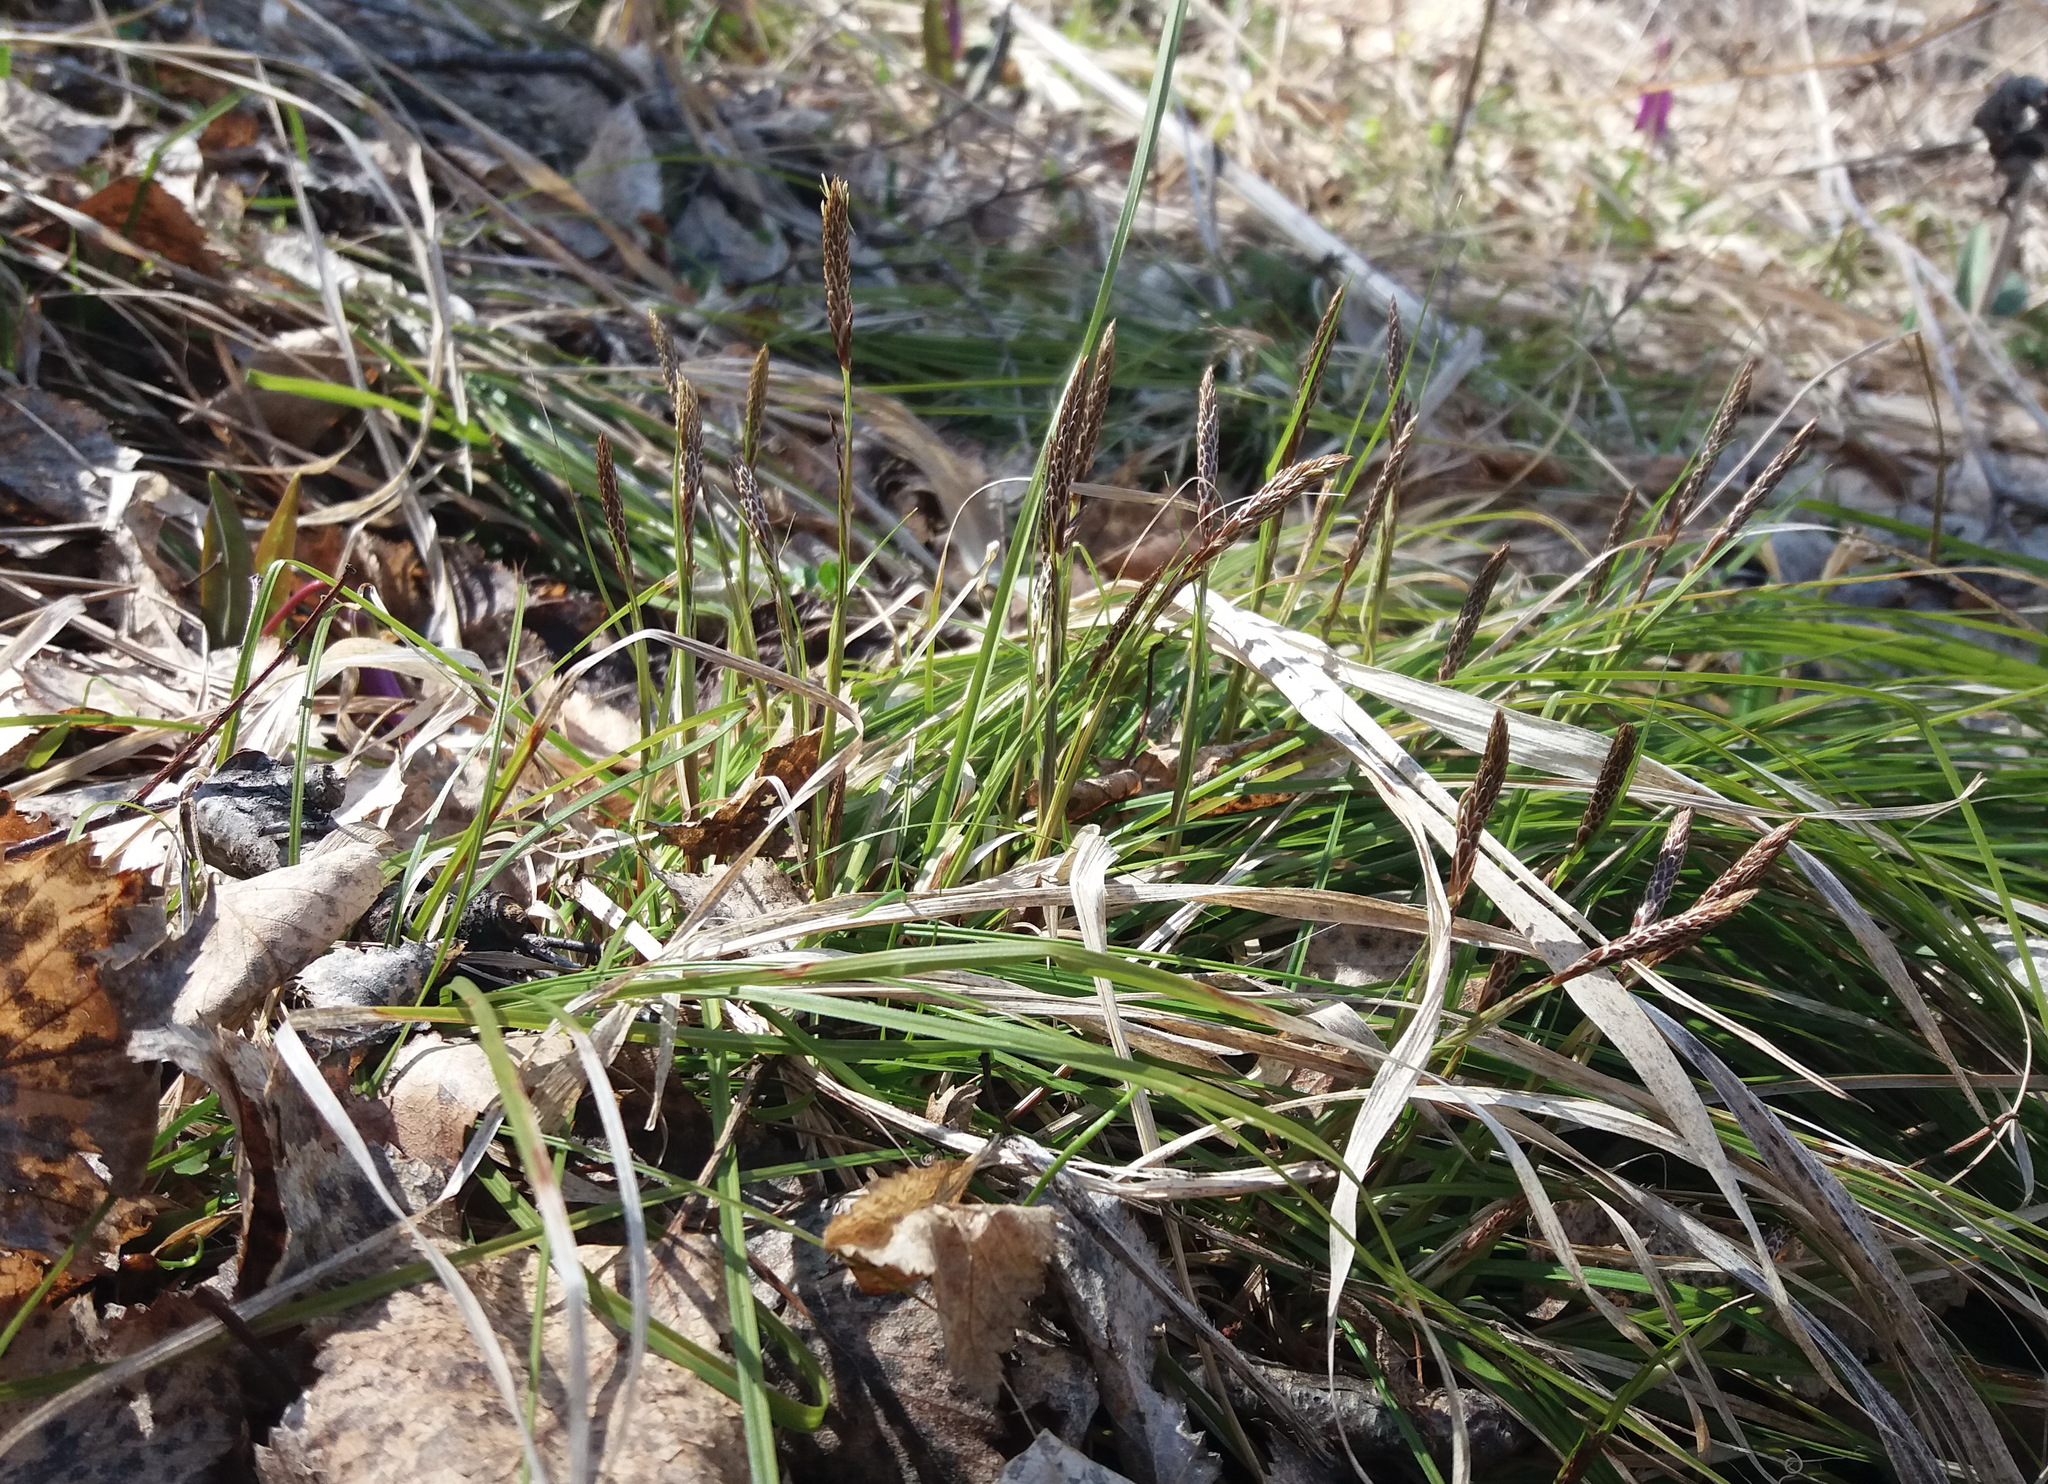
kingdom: Plantae
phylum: Tracheophyta
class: Liliopsida
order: Poales
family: Cyperaceae
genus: Carex
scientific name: Carex pediformis
